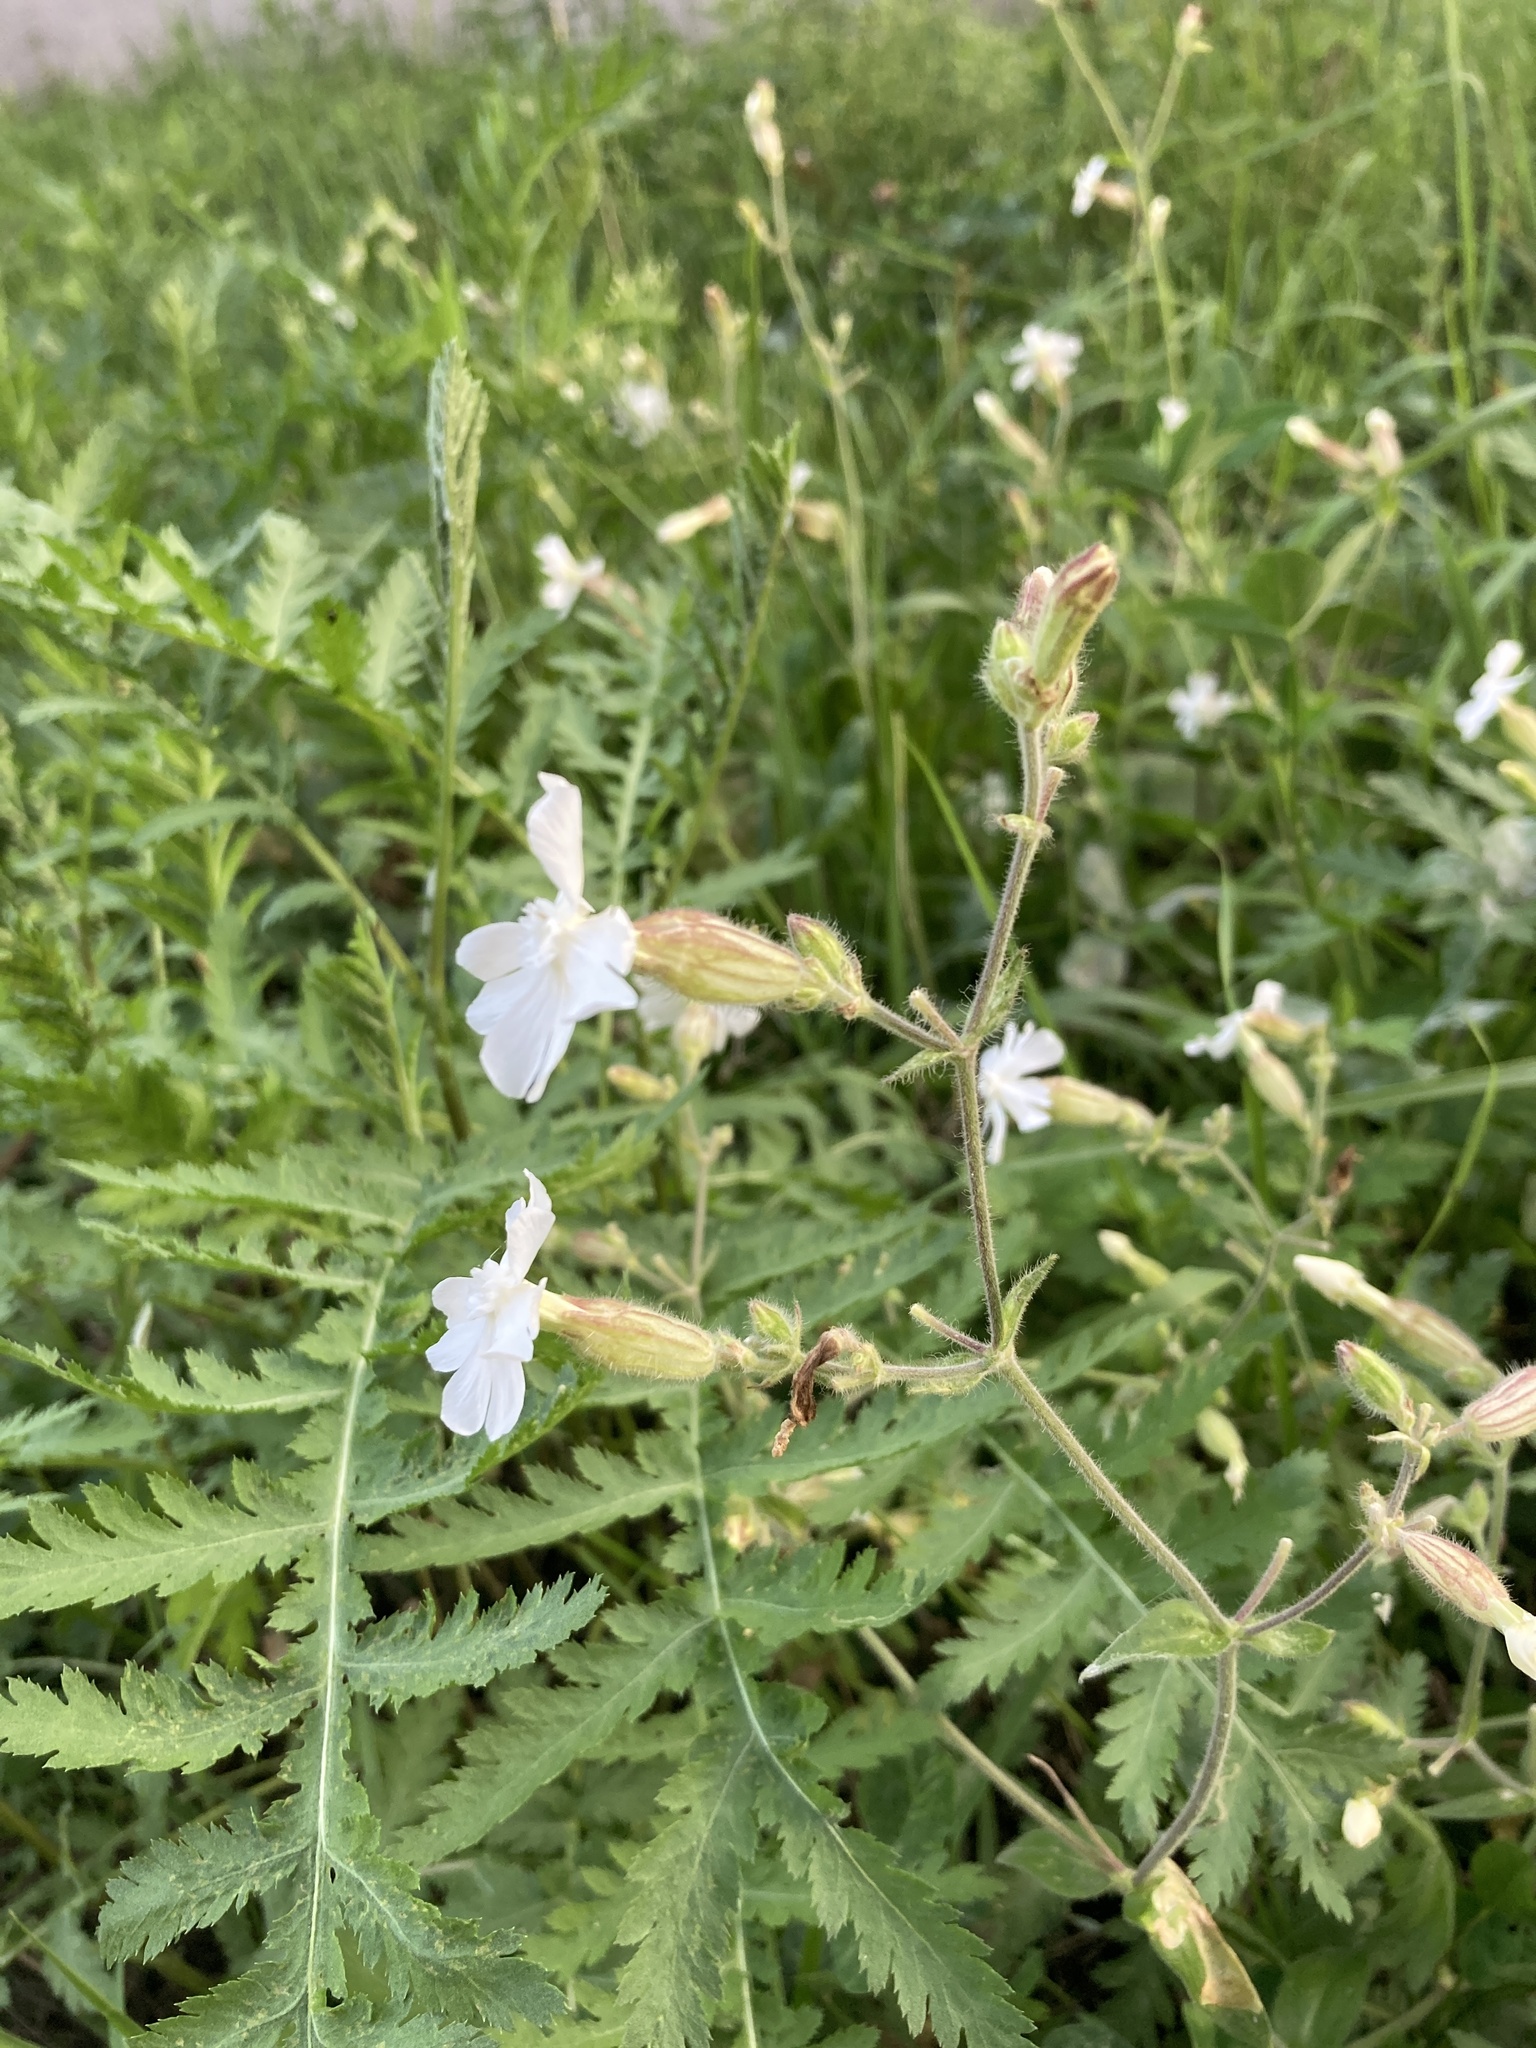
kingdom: Plantae
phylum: Tracheophyta
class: Magnoliopsida
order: Caryophyllales
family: Caryophyllaceae
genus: Silene
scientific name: Silene latifolia
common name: White campion
